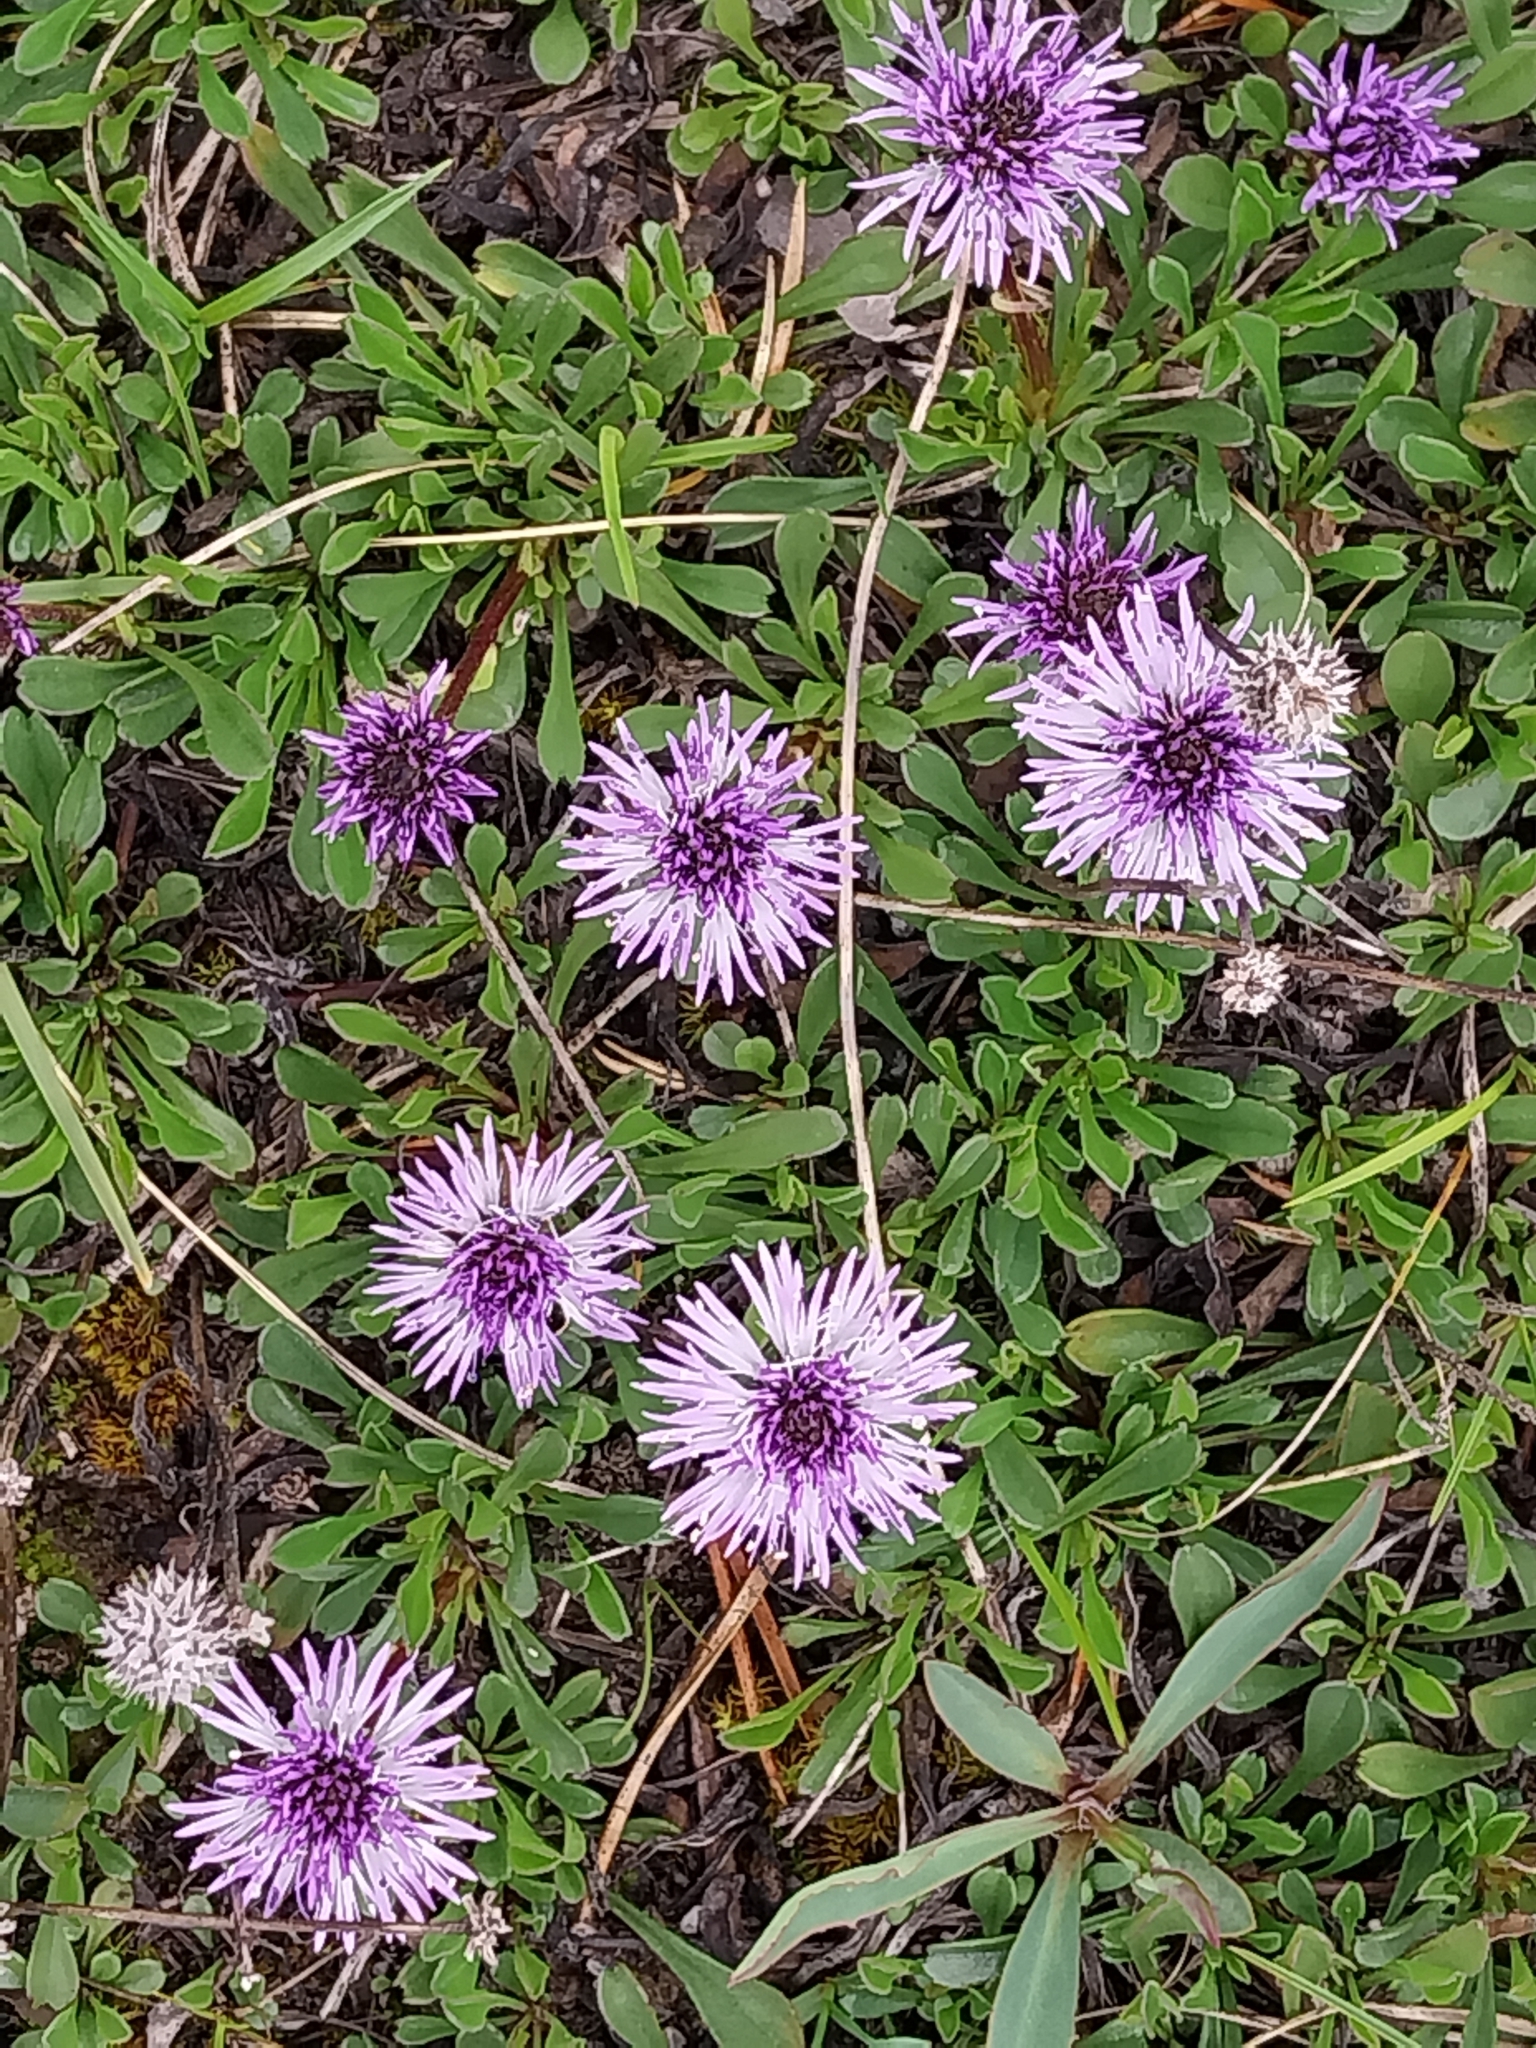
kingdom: Plantae
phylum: Tracheophyta
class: Magnoliopsida
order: Lamiales
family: Plantaginaceae
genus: Globularia
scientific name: Globularia cordifolia
